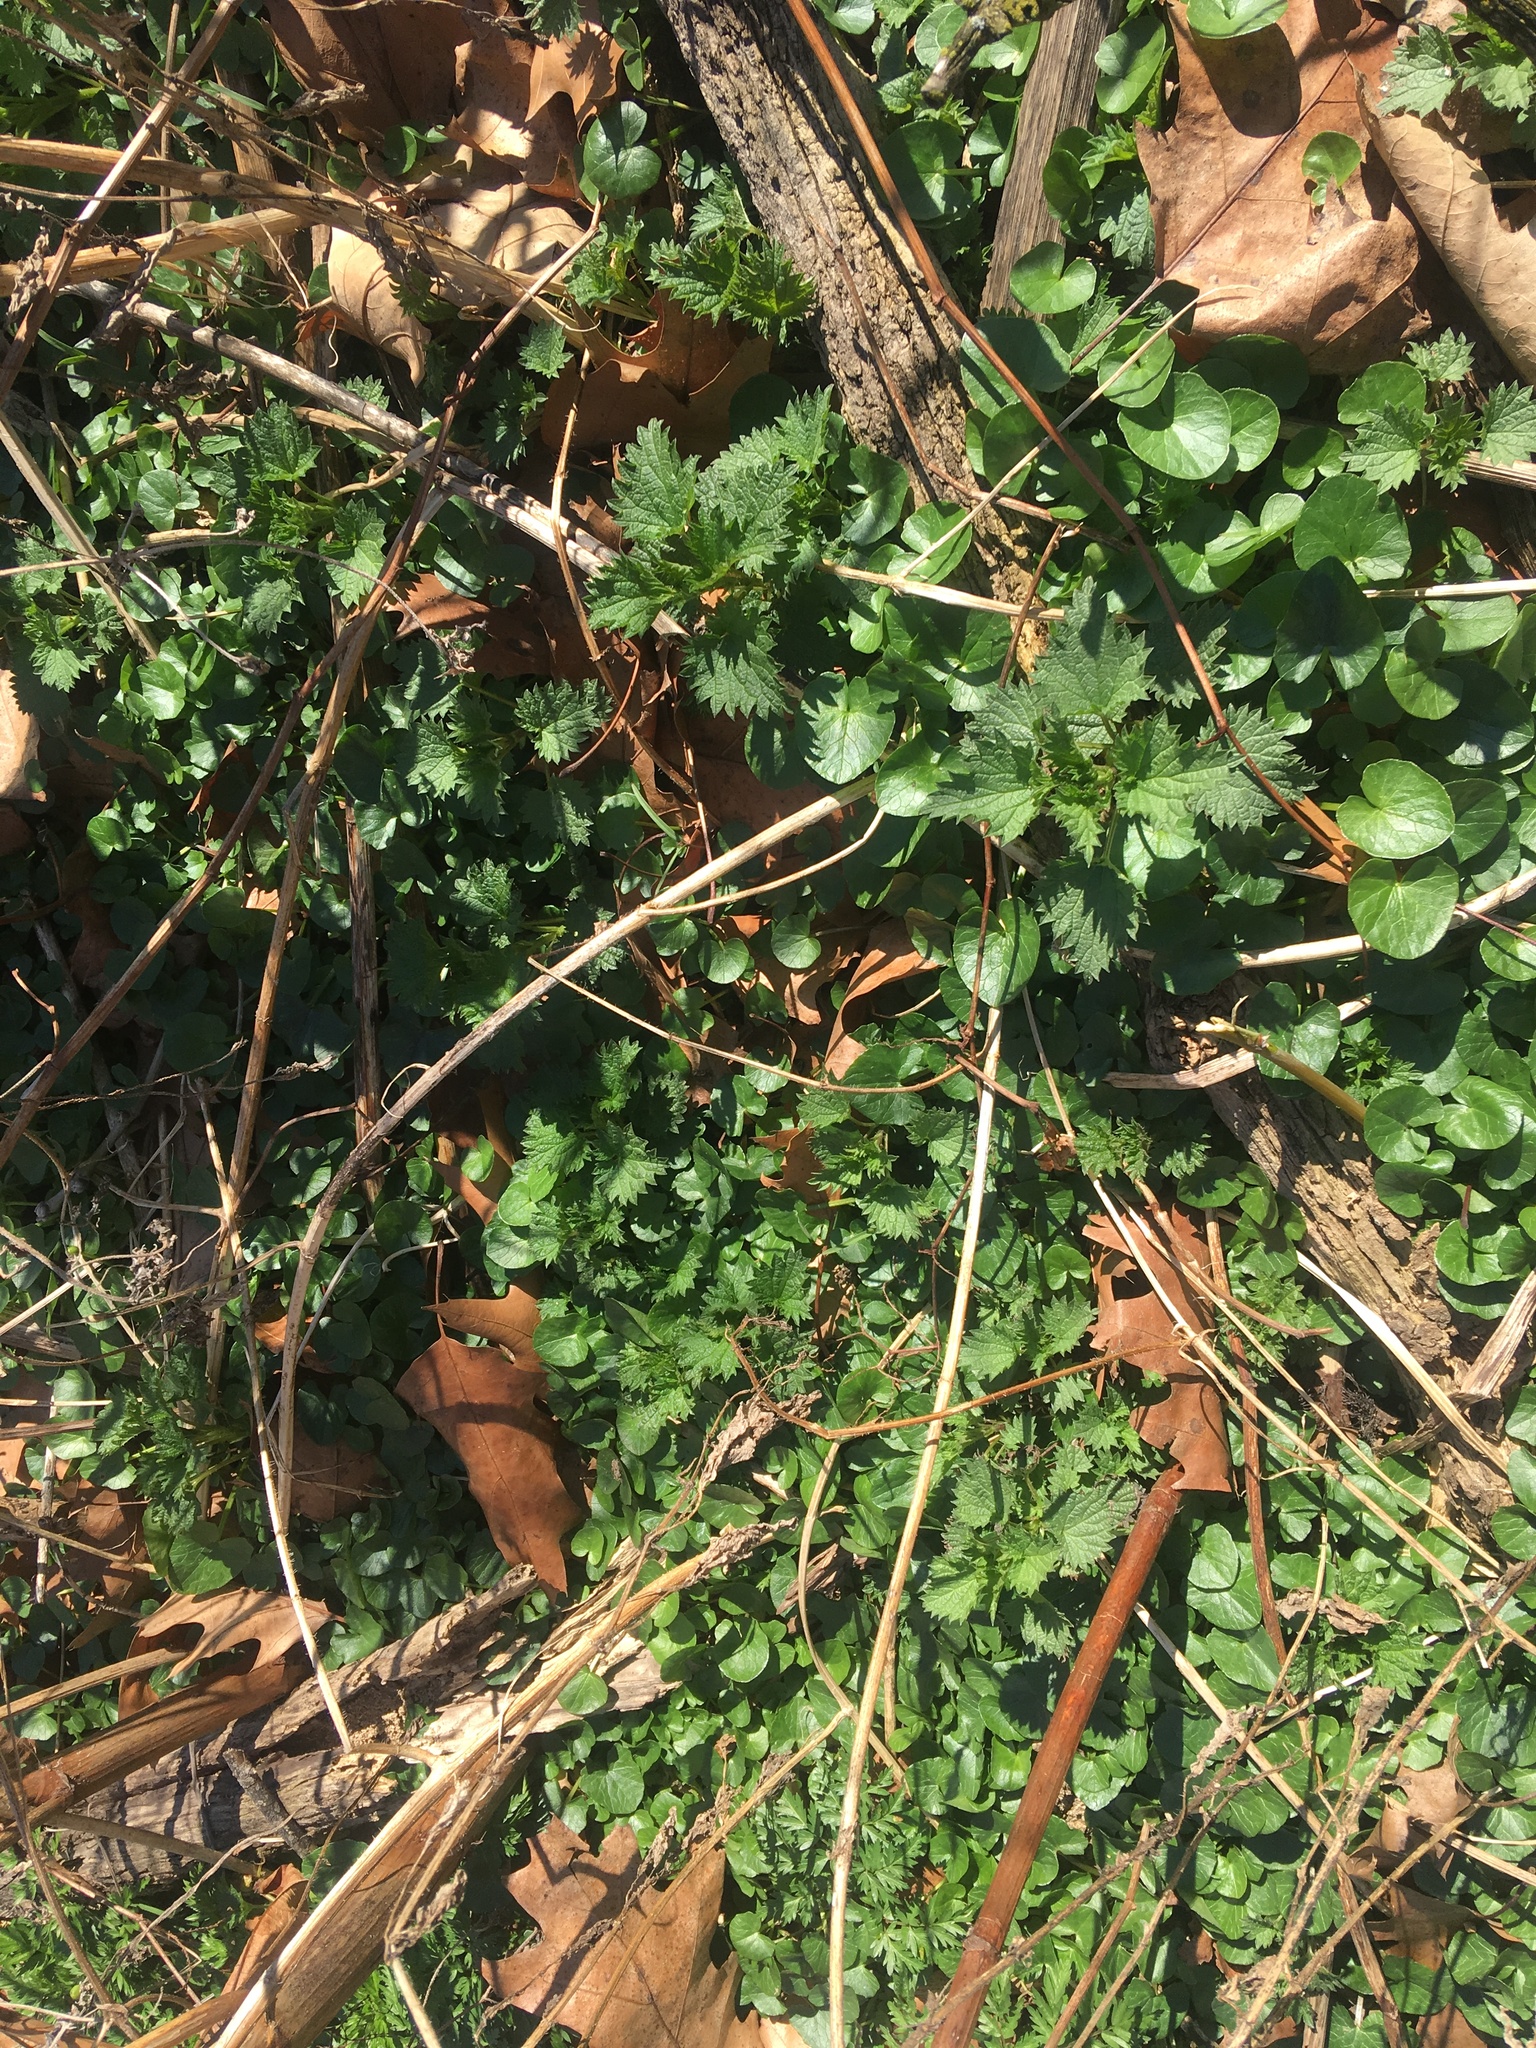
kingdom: Plantae
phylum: Tracheophyta
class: Magnoliopsida
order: Ranunculales
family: Ranunculaceae
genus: Ficaria
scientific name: Ficaria verna
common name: Lesser celandine
